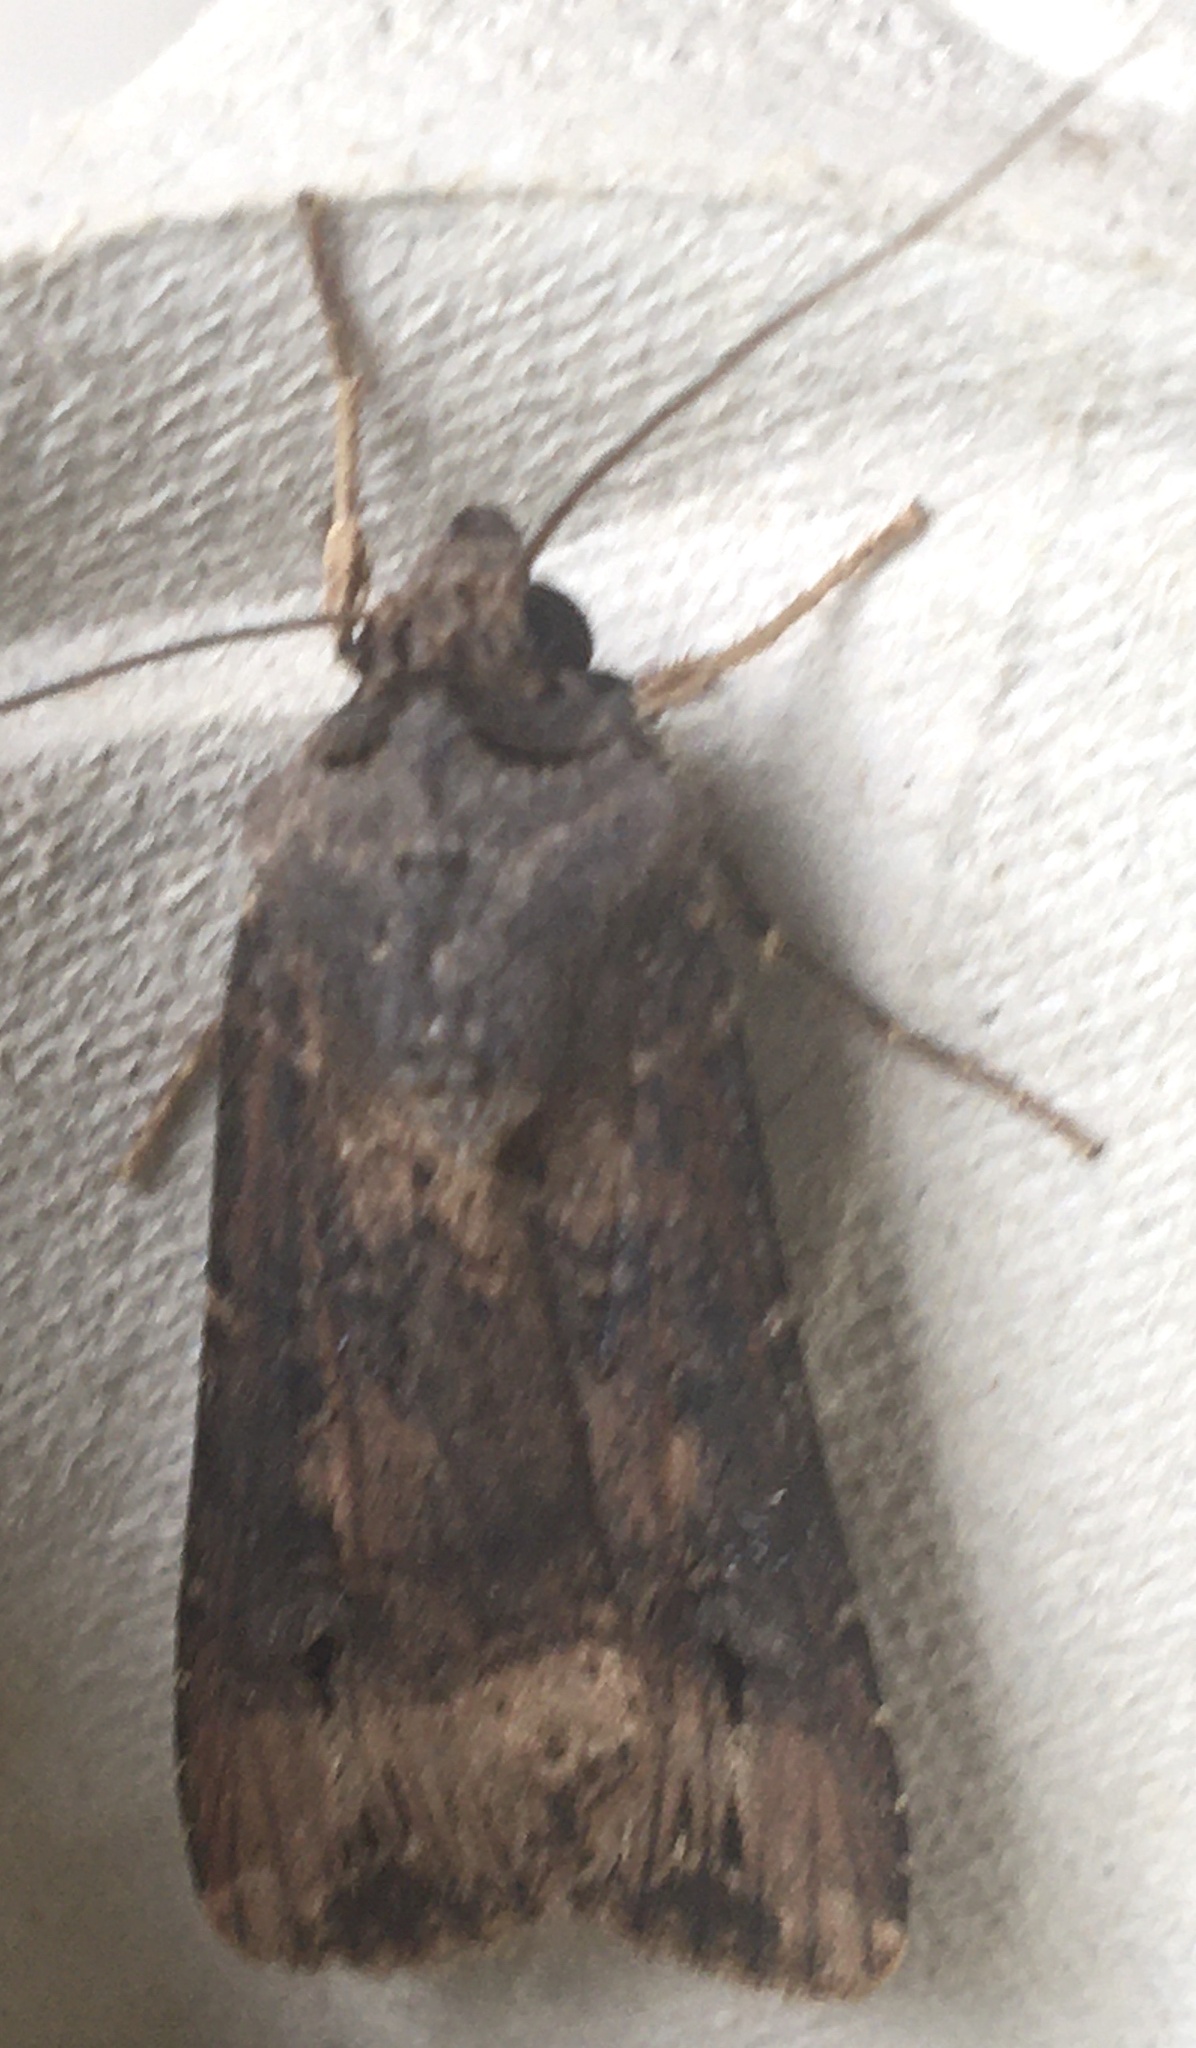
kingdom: Animalia
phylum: Arthropoda
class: Insecta
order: Lepidoptera
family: Noctuidae
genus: Agrotis
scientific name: Agrotis ipsilon
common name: Dark sword-grass
